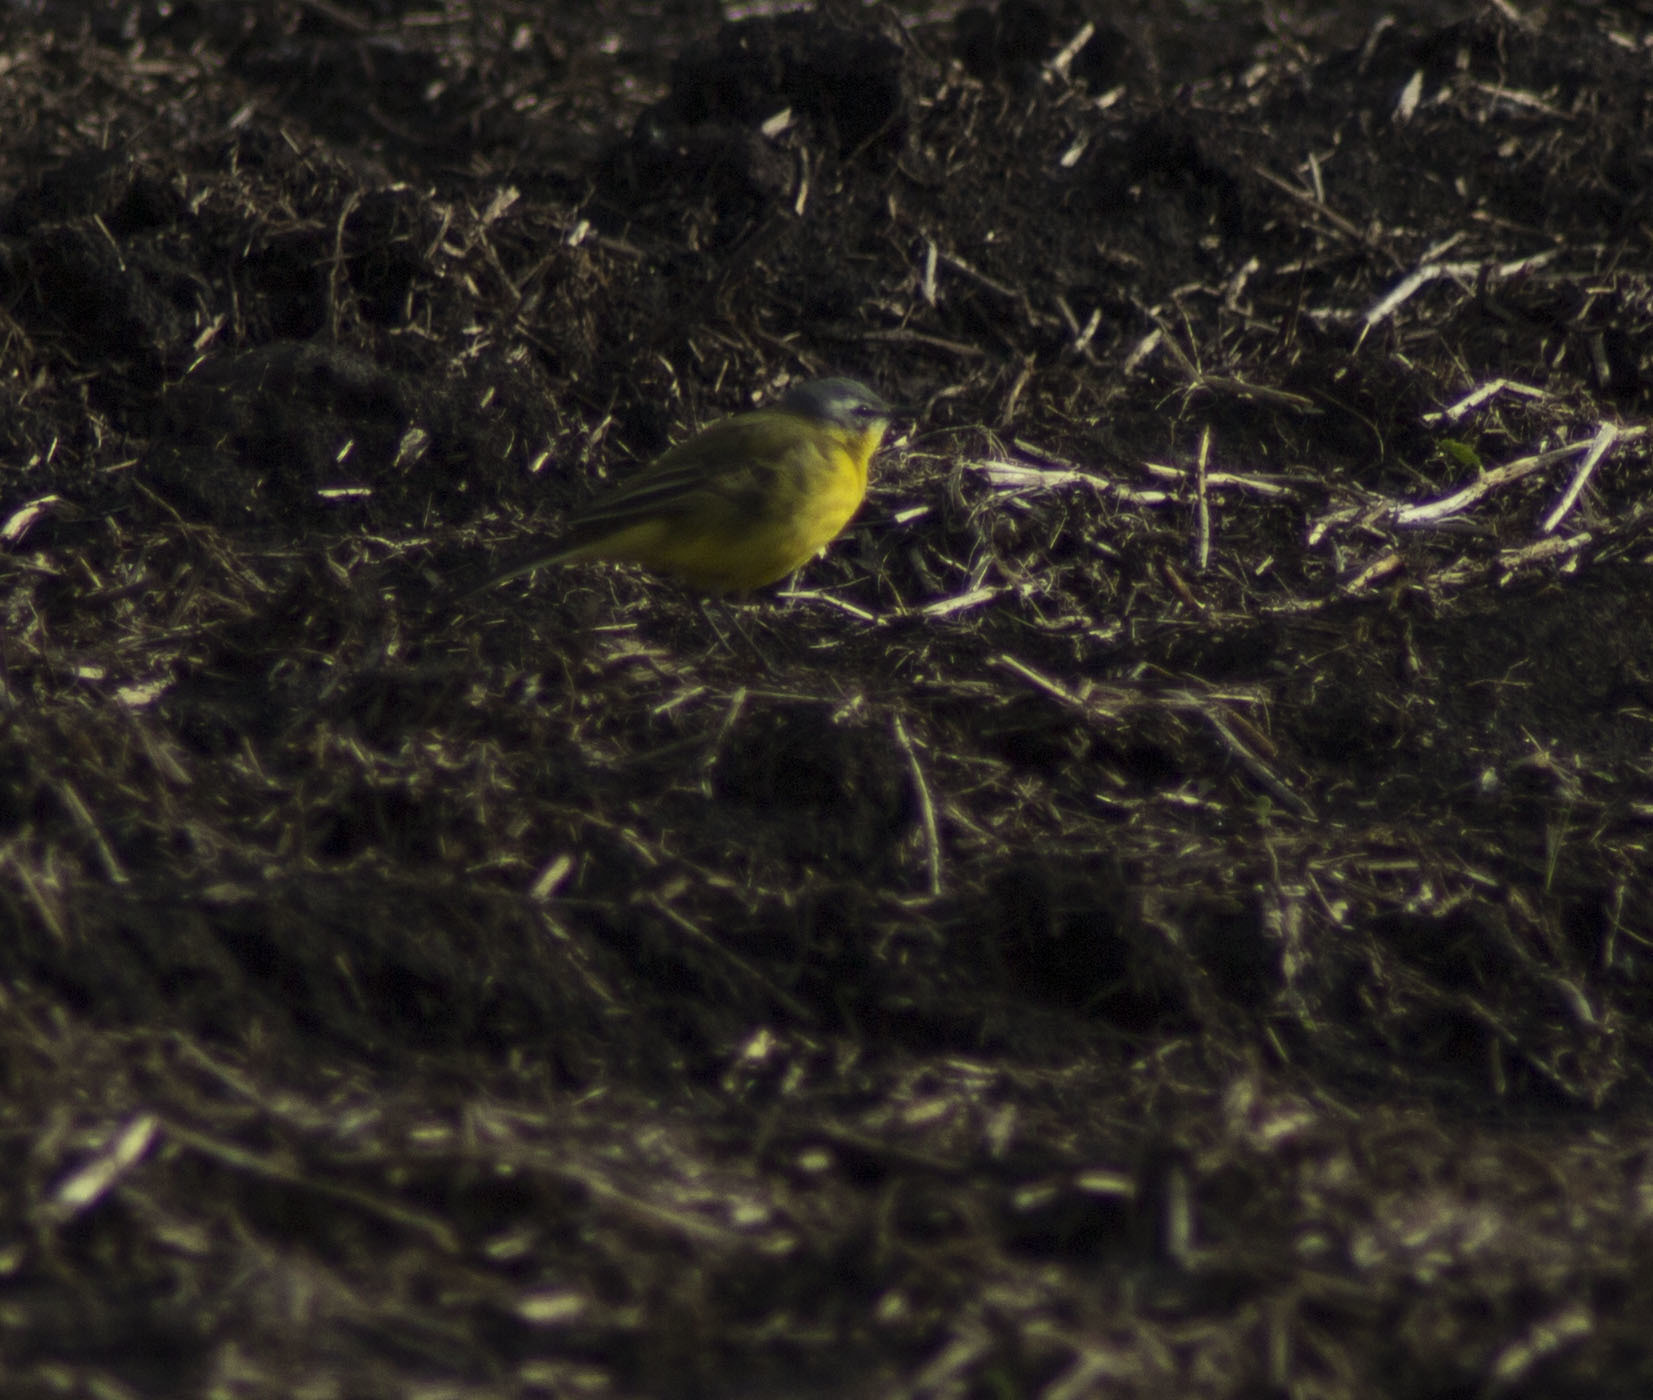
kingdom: Animalia
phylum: Chordata
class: Aves
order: Passeriformes
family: Motacillidae
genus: Motacilla
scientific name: Motacilla flava
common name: Western yellow wagtail
